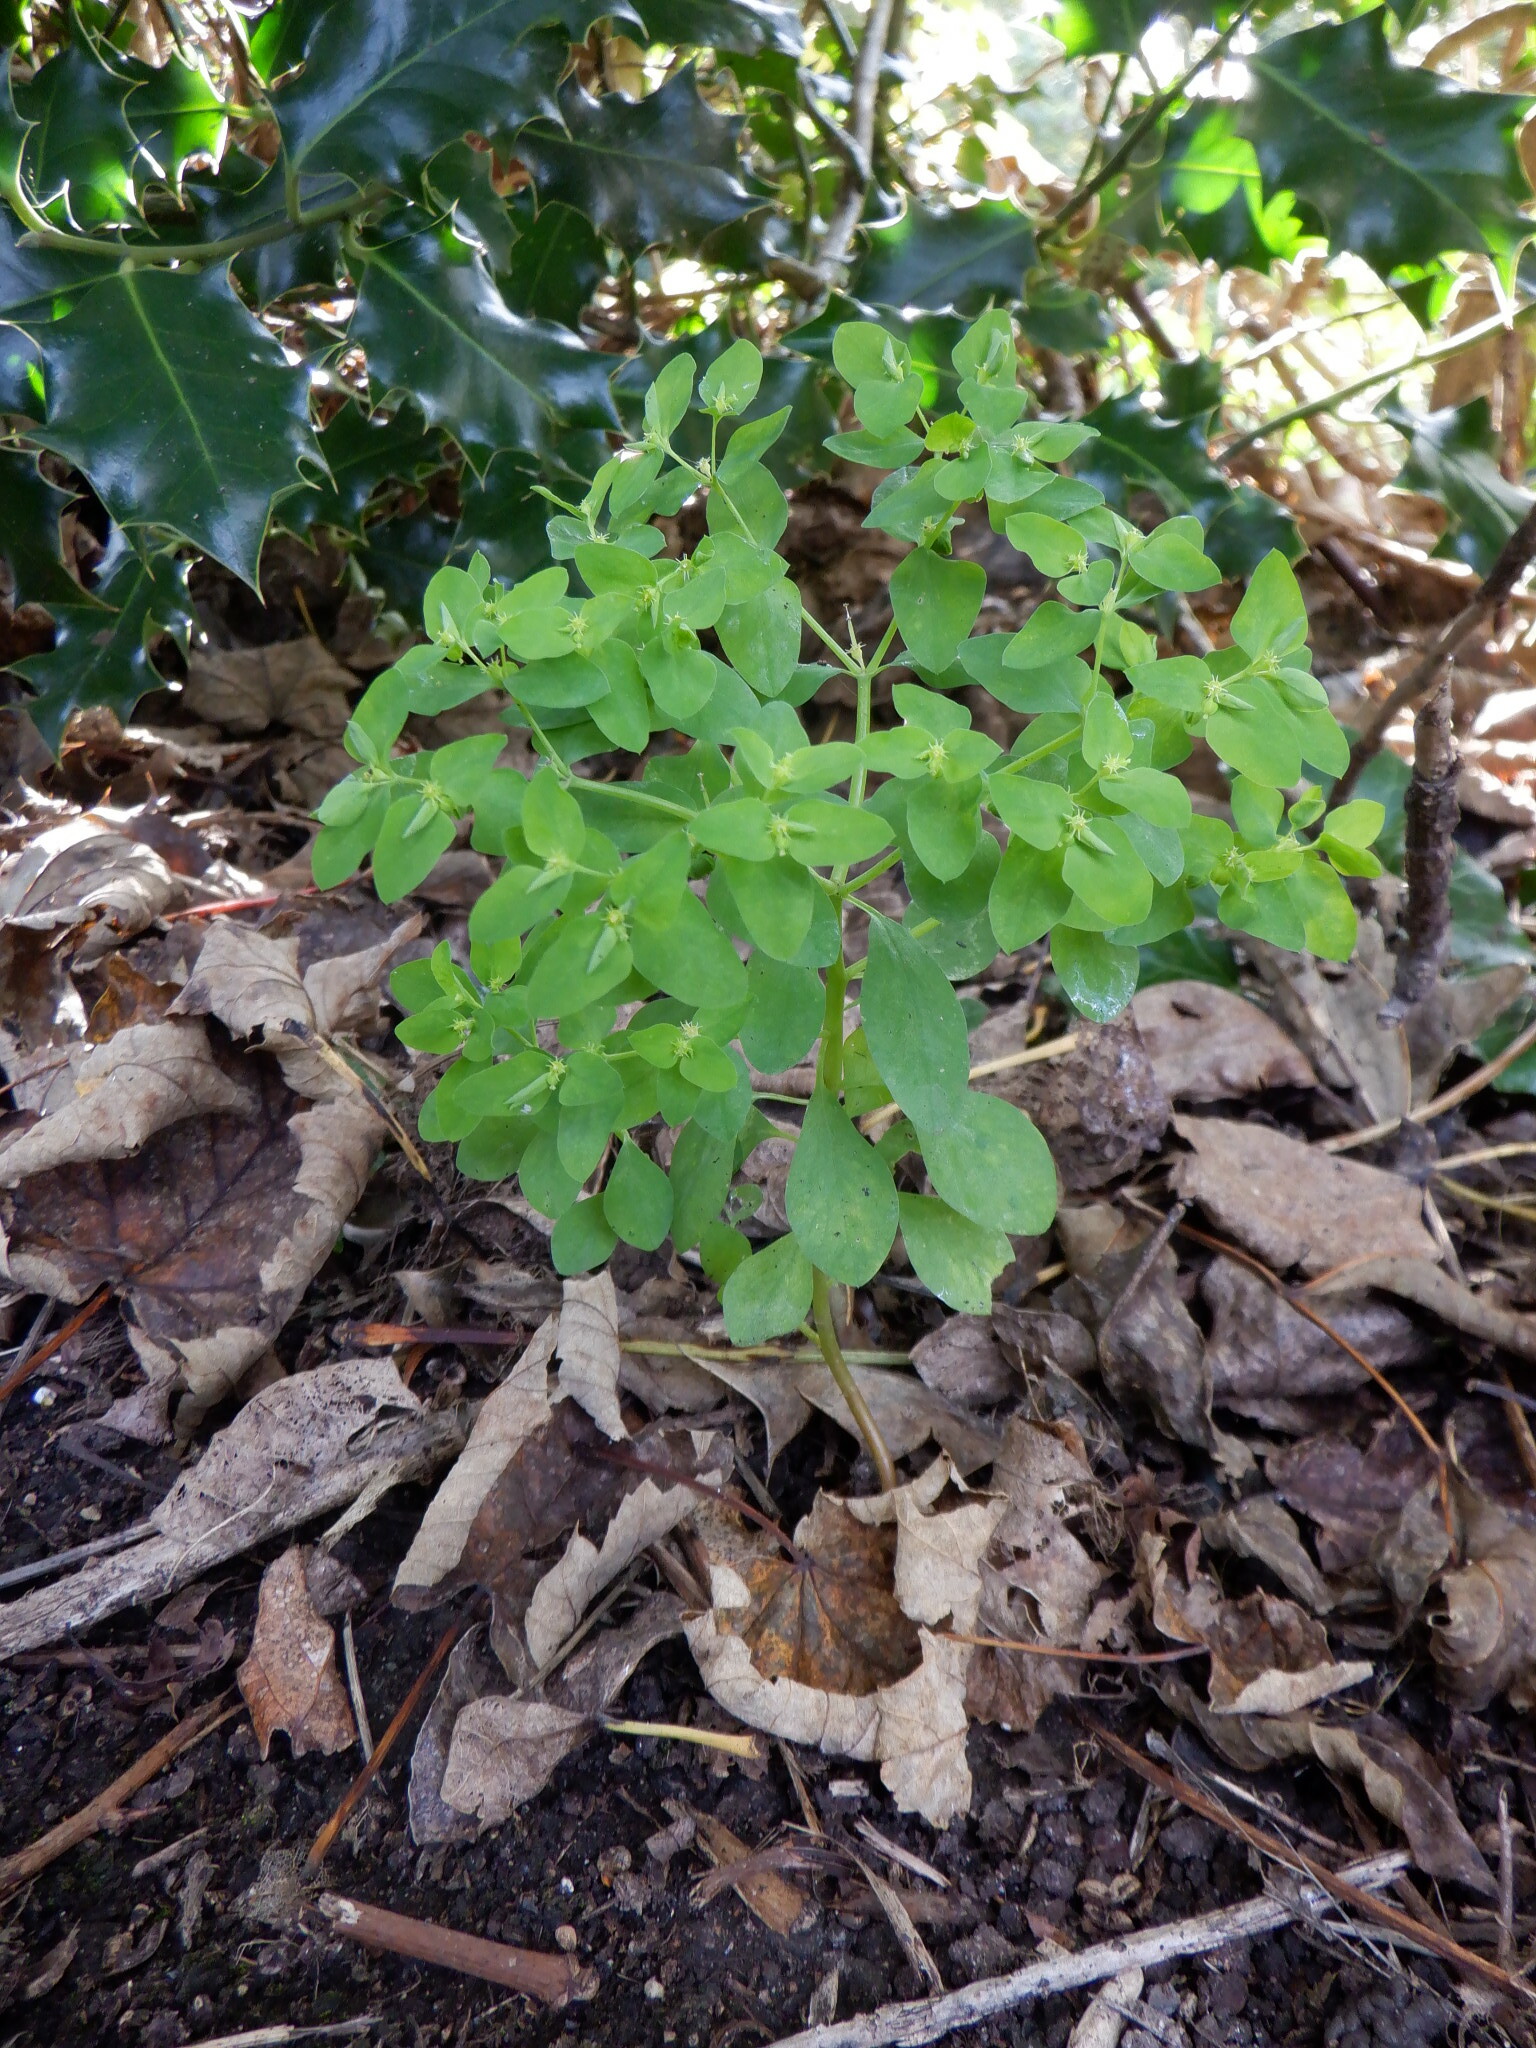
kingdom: Plantae
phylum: Tracheophyta
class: Magnoliopsida
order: Malpighiales
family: Euphorbiaceae
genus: Euphorbia
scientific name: Euphorbia peplus
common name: Petty spurge
